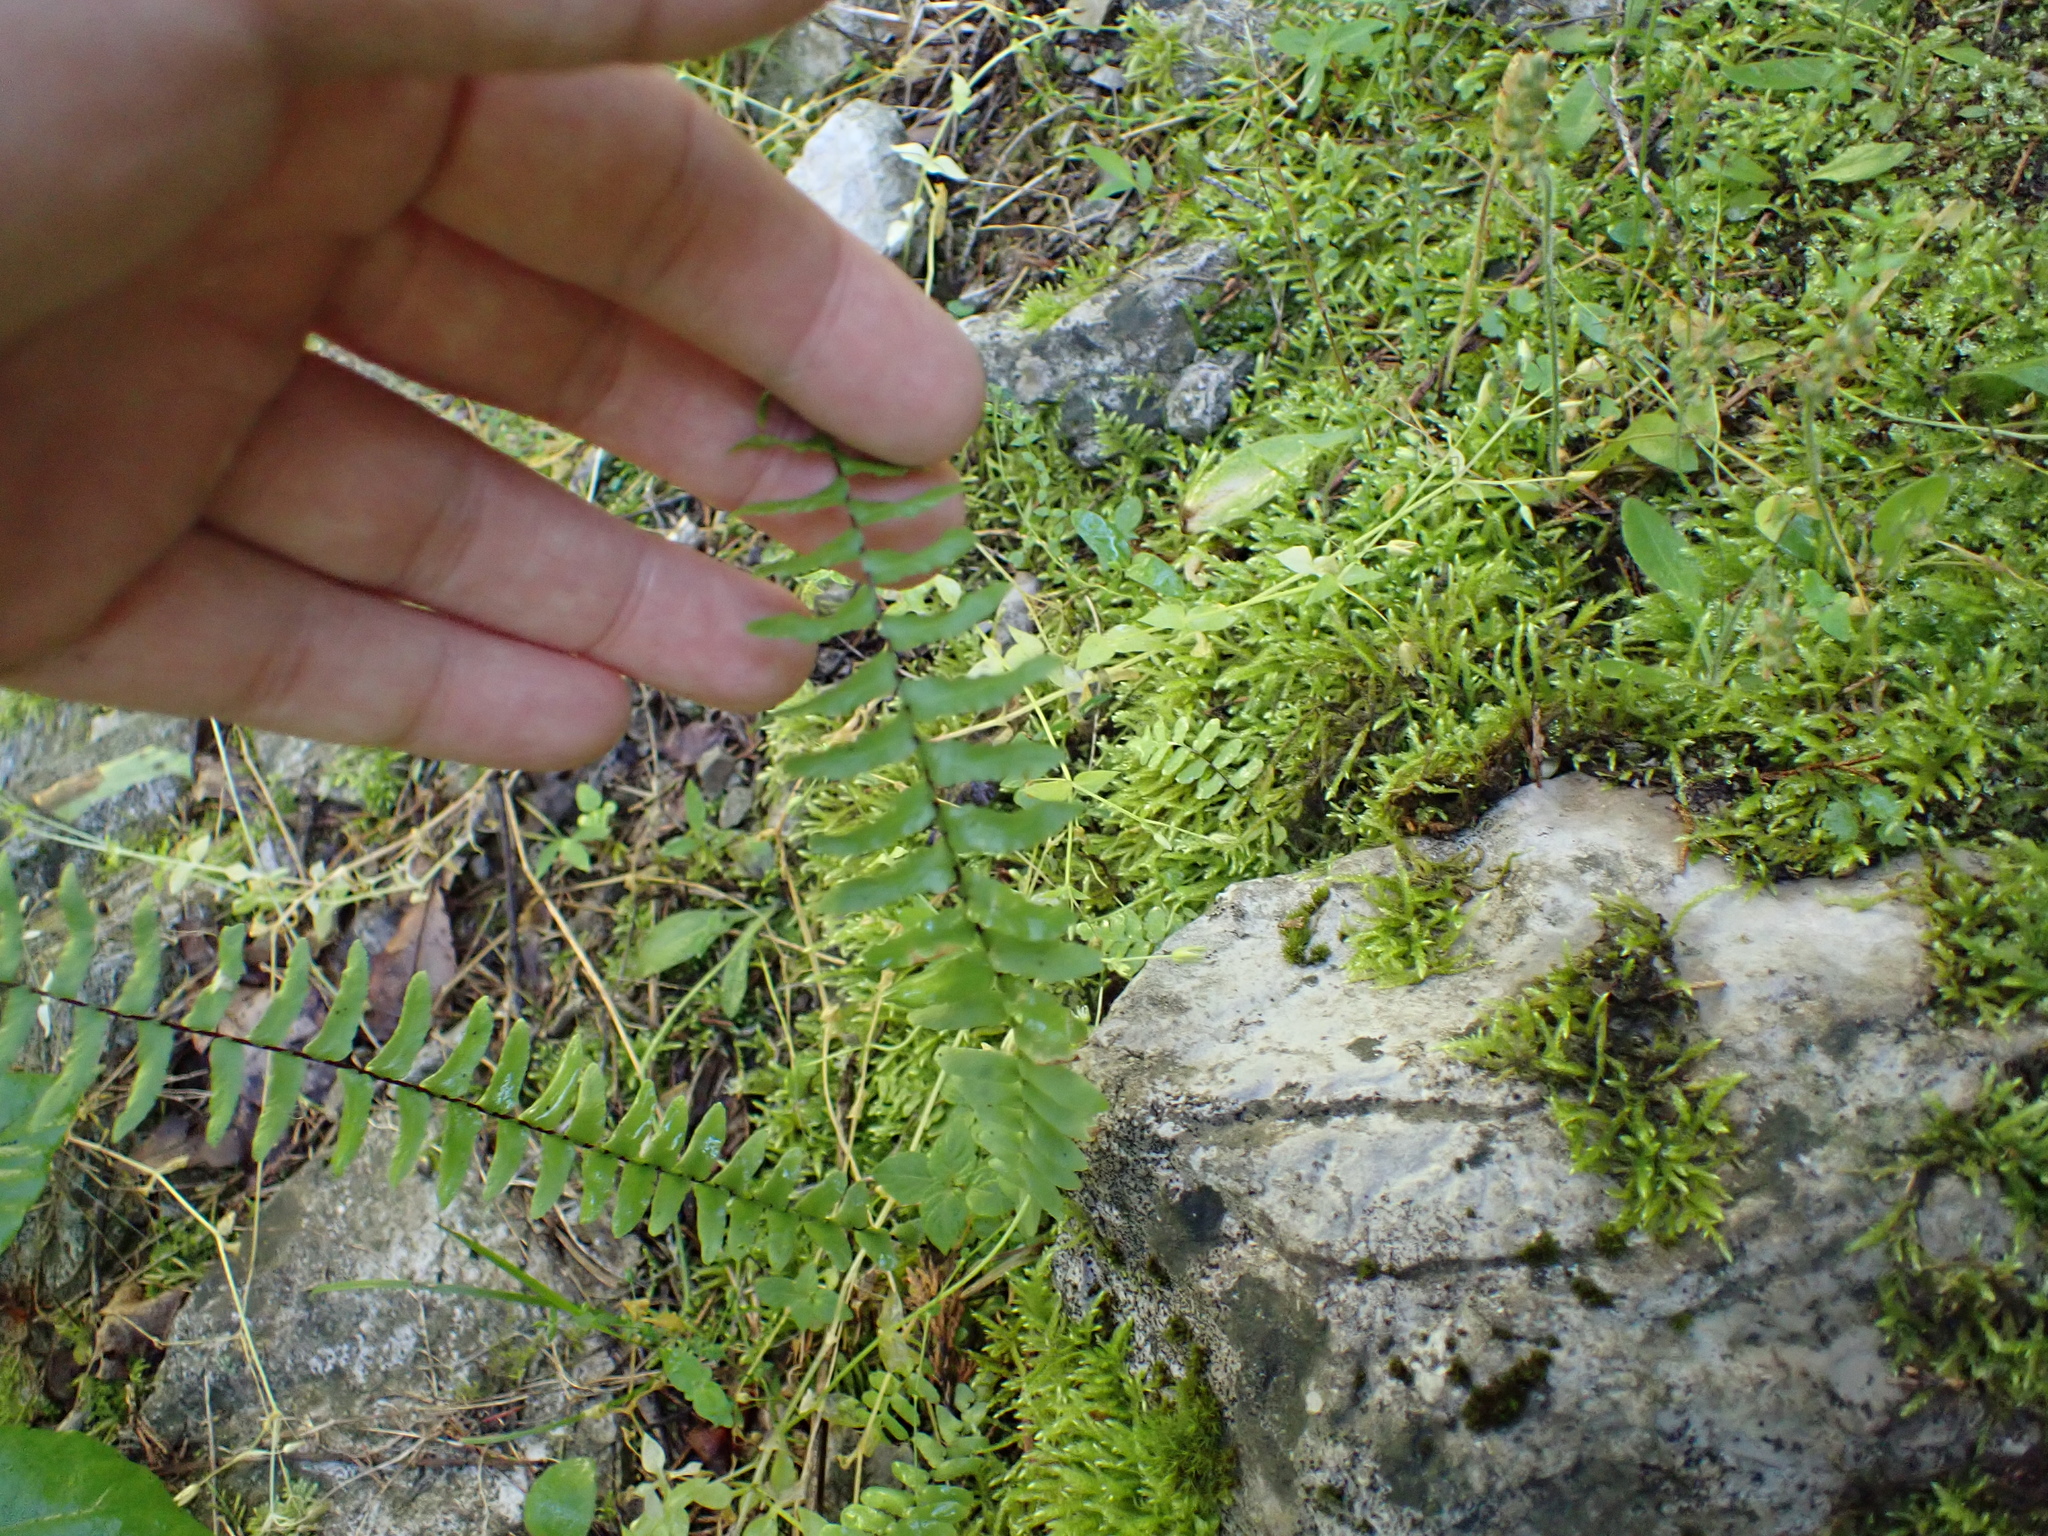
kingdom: Plantae
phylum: Tracheophyta
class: Polypodiopsida
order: Polypodiales
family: Aspleniaceae
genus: Asplenium
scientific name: Asplenium platyneuron
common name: Ebony spleenwort
